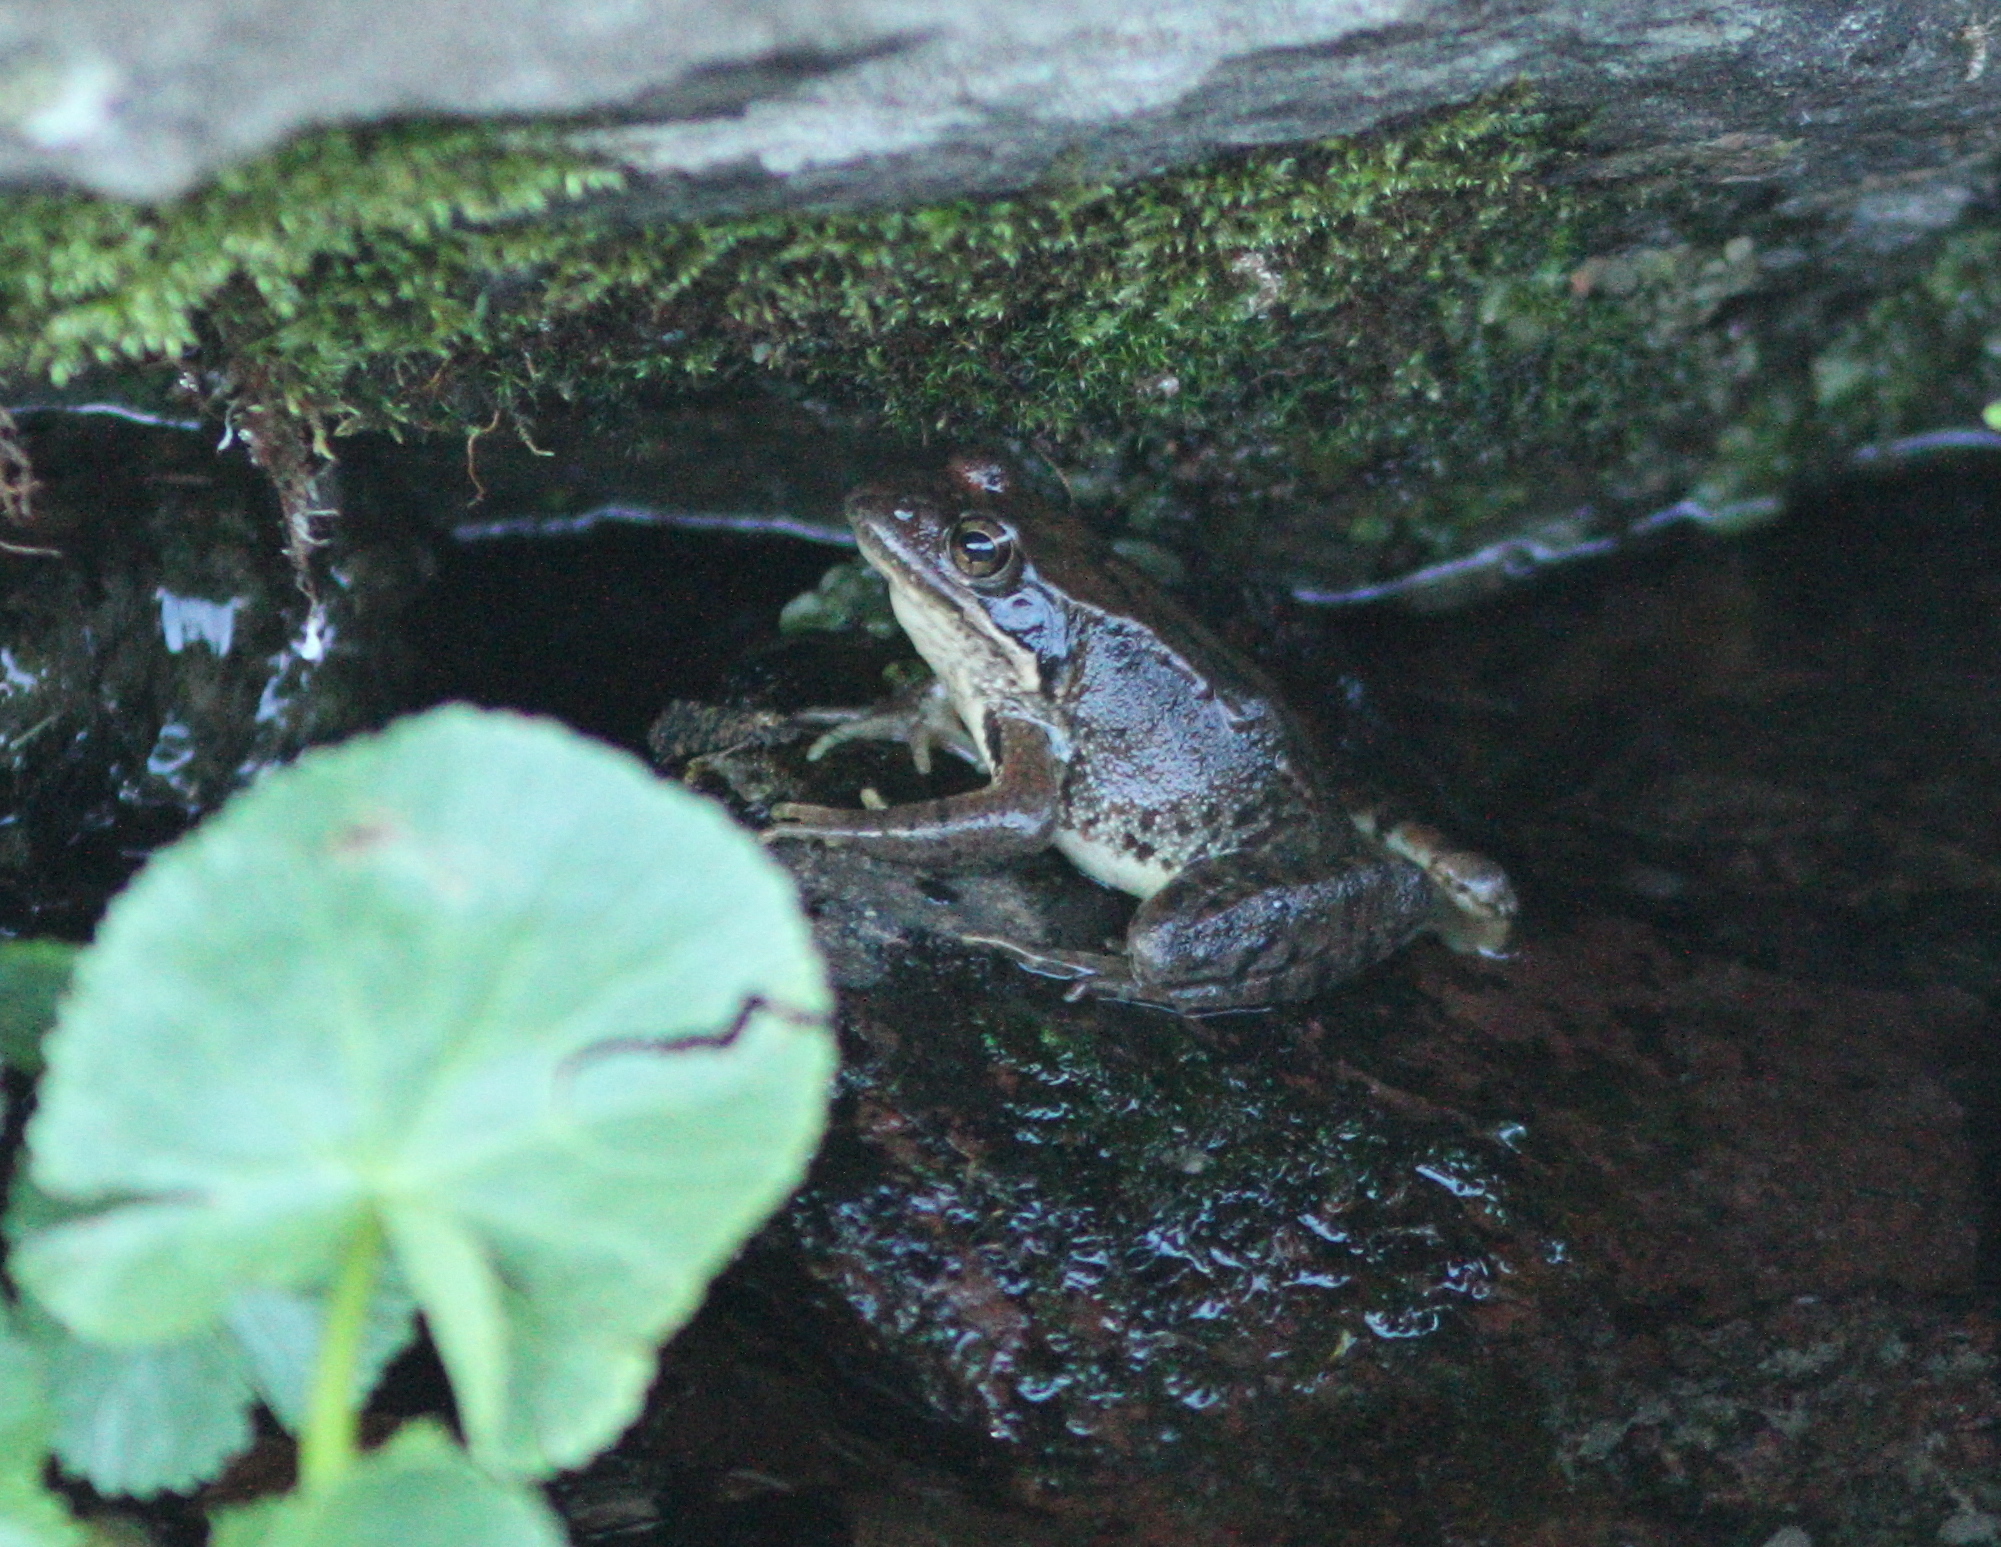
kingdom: Animalia
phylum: Chordata
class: Amphibia
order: Anura
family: Ranidae
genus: Rana
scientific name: Rana temporaria
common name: Common frog
